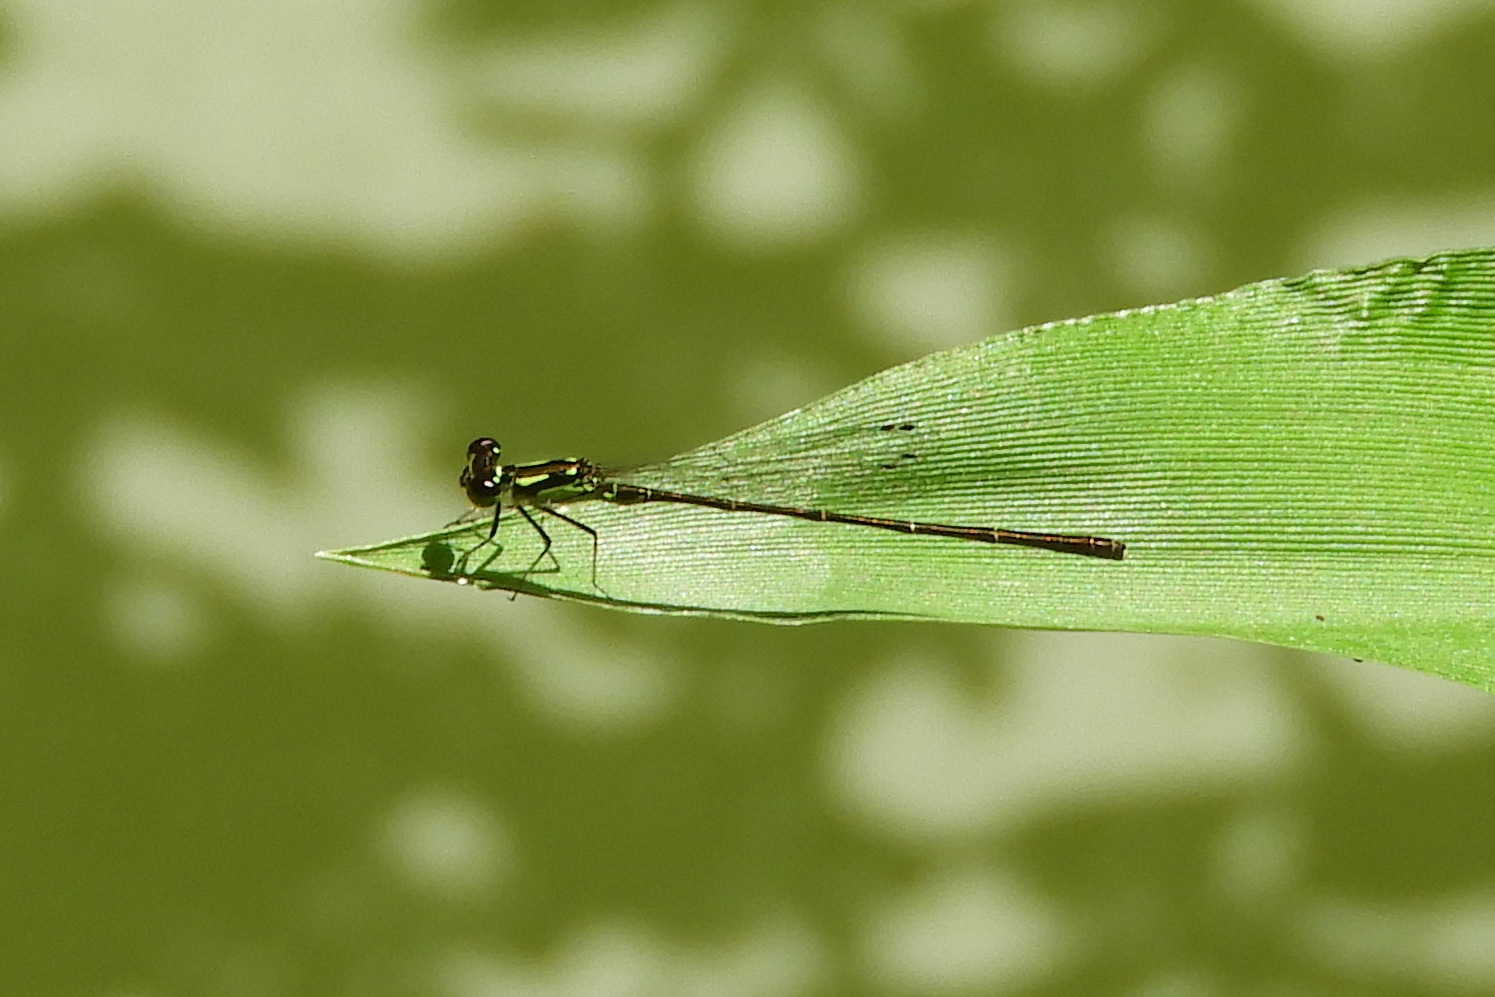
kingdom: Animalia
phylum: Arthropoda
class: Insecta
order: Odonata
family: Coenagrionidae
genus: Ischnura
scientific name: Ischnura posita
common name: Fragile forktail
